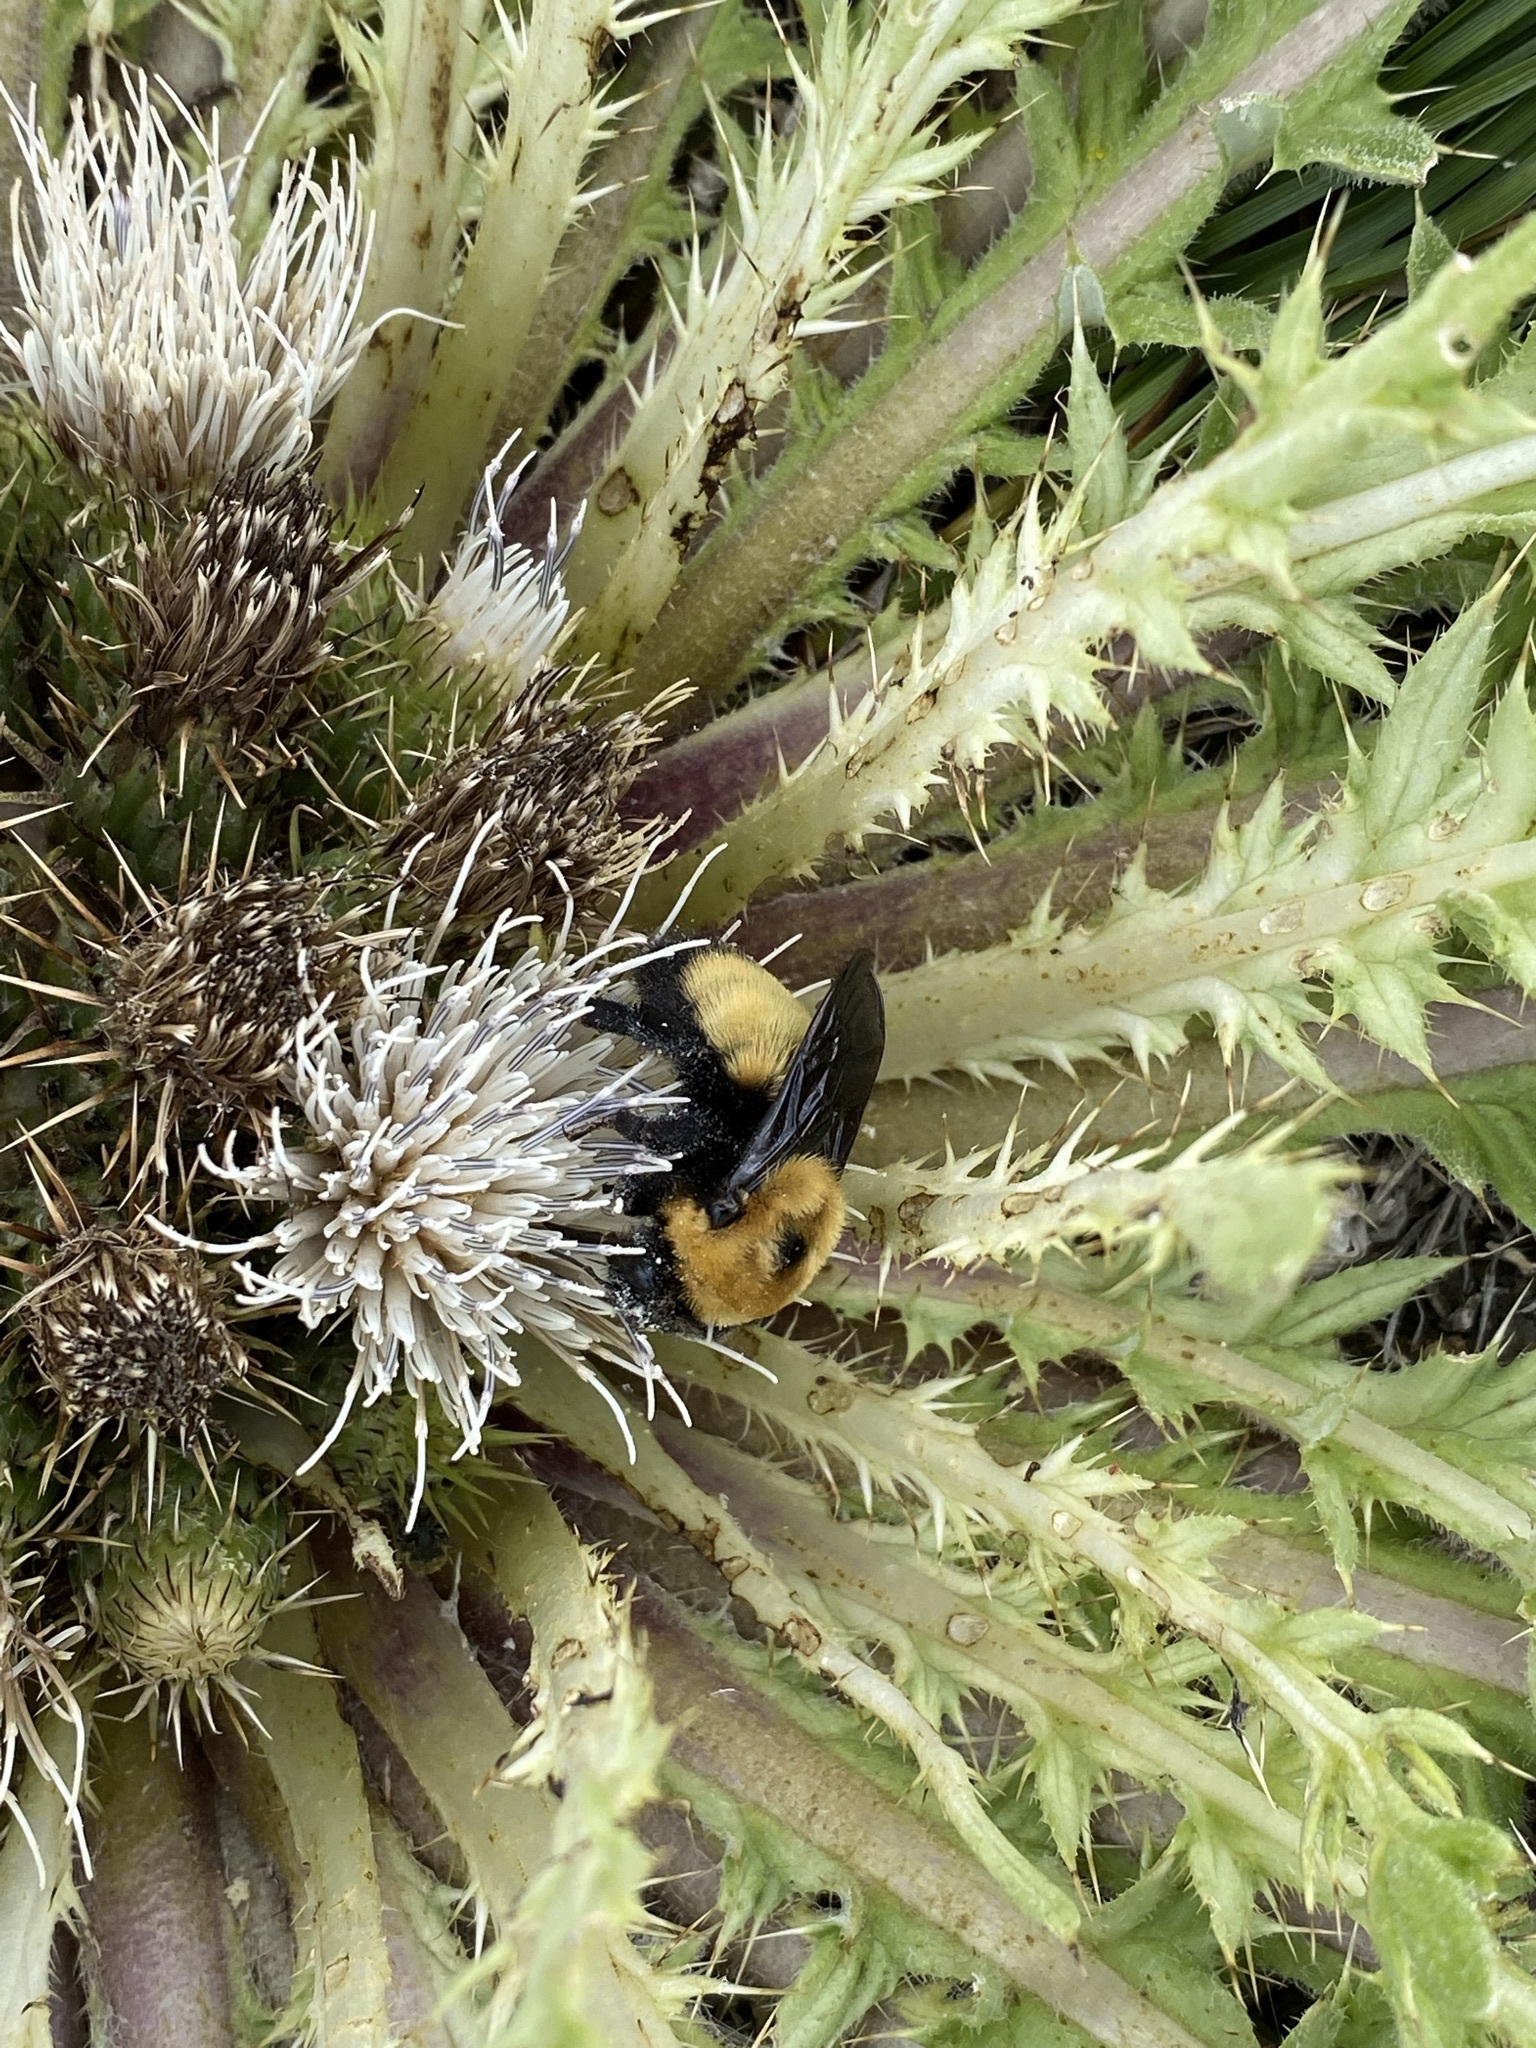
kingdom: Animalia
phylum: Arthropoda
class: Insecta
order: Hymenoptera
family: Apidae
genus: Bombus
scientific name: Bombus nevadensis
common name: Nevada bumble bee
